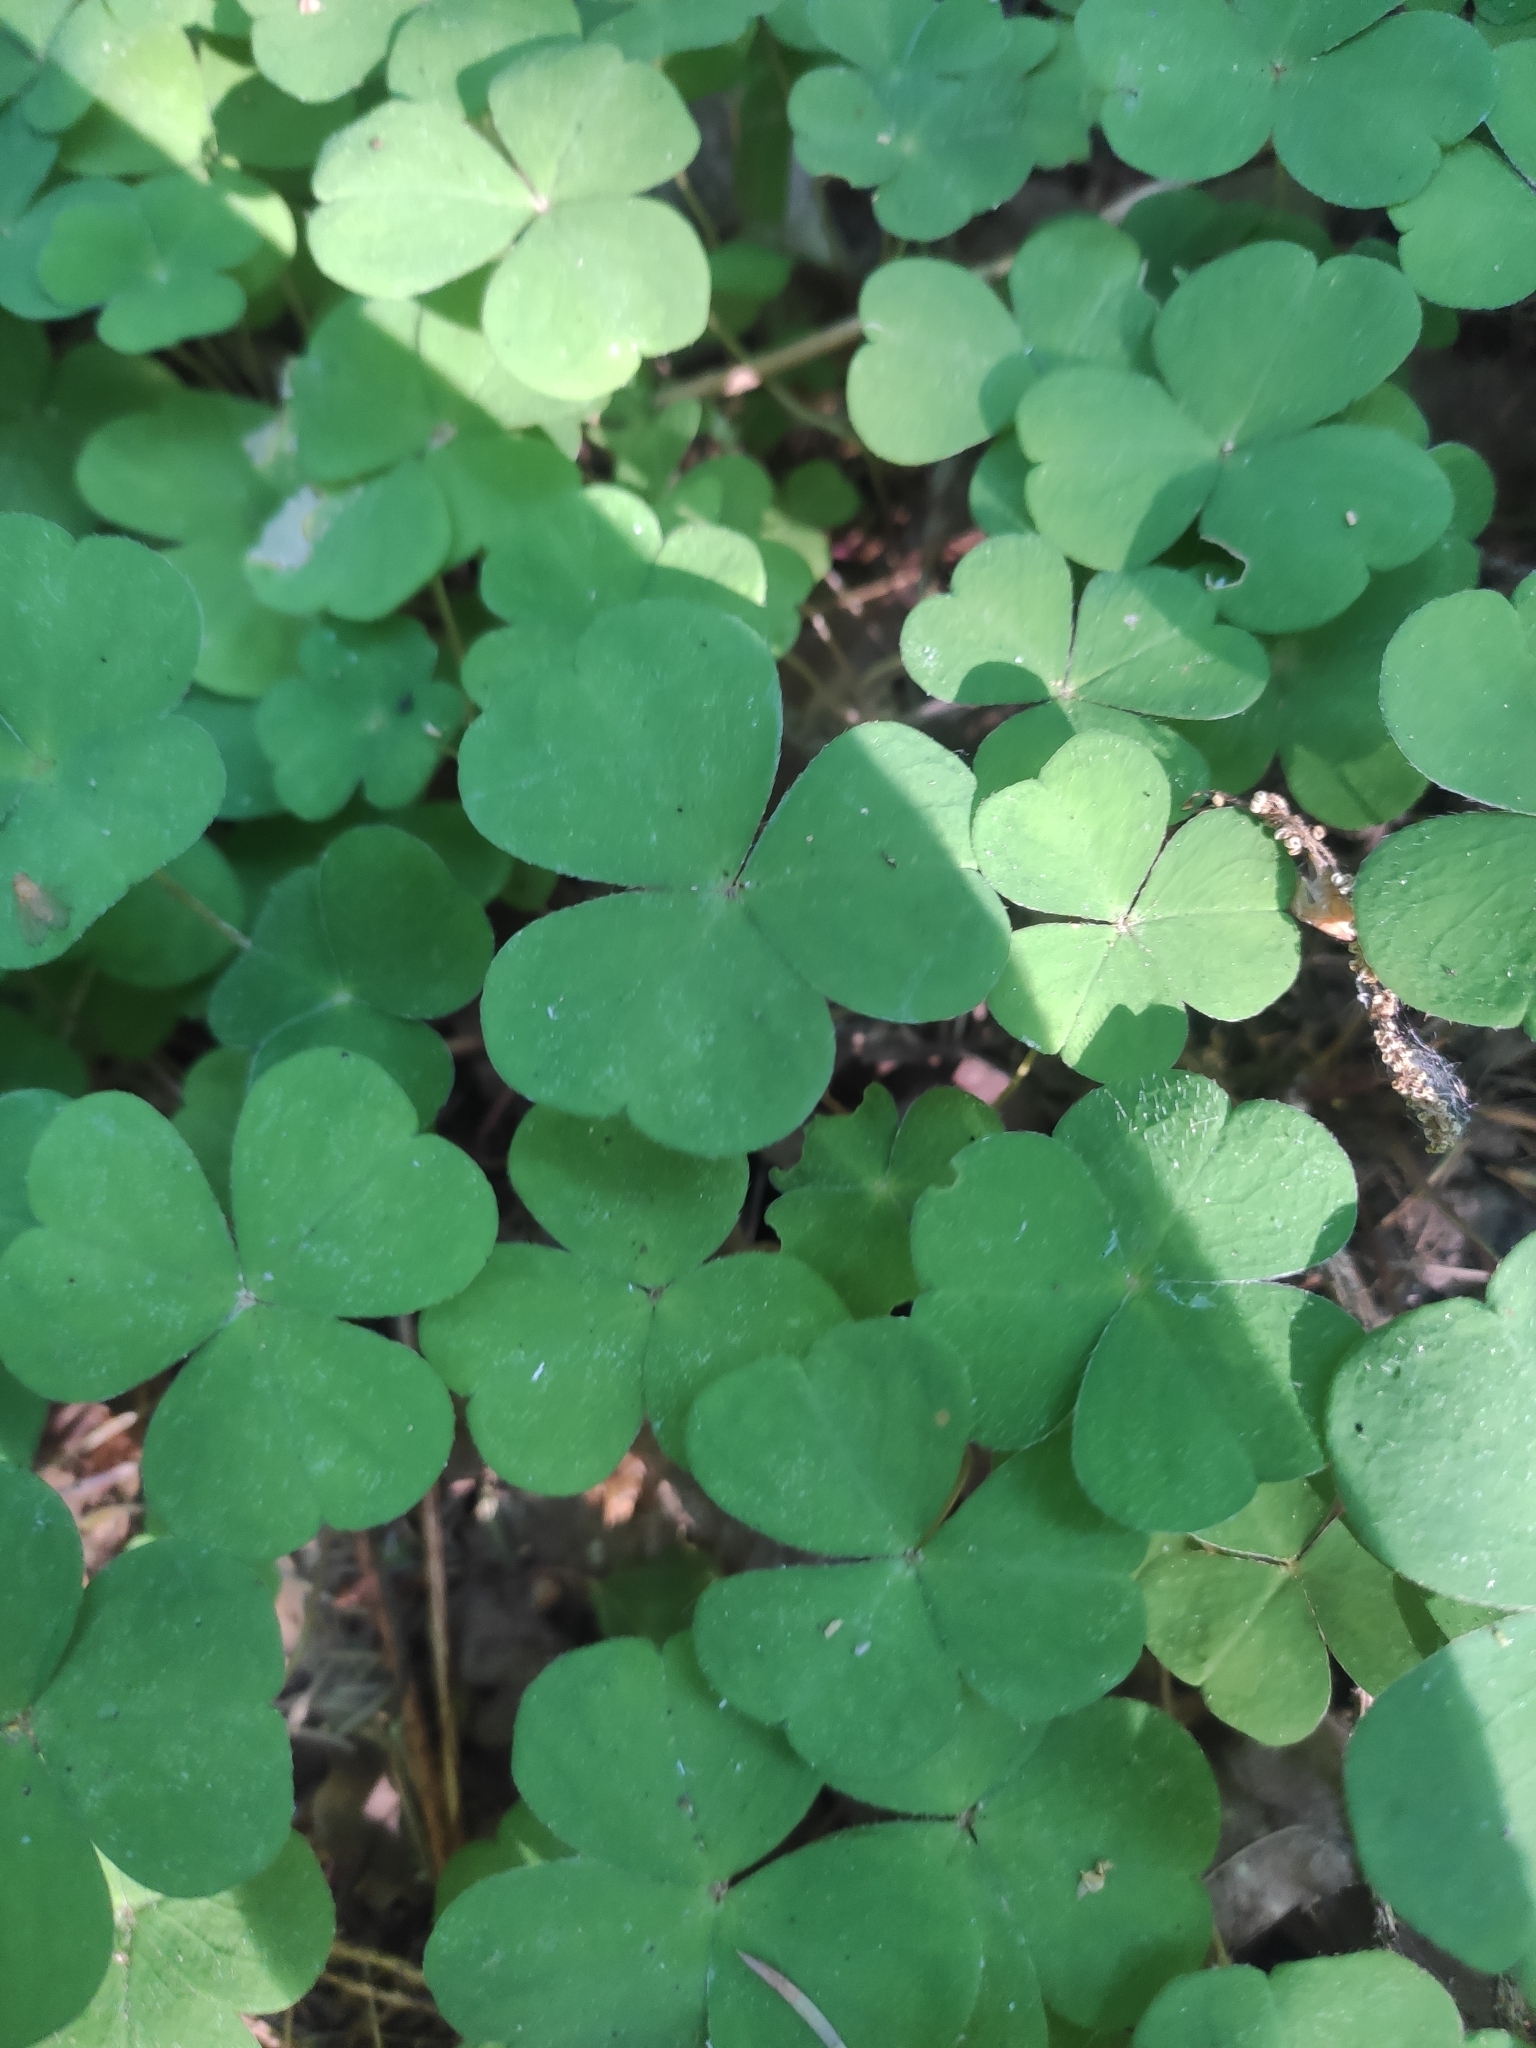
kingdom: Plantae
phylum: Tracheophyta
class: Magnoliopsida
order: Oxalidales
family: Oxalidaceae
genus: Oxalis
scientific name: Oxalis acetosella
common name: Wood-sorrel
